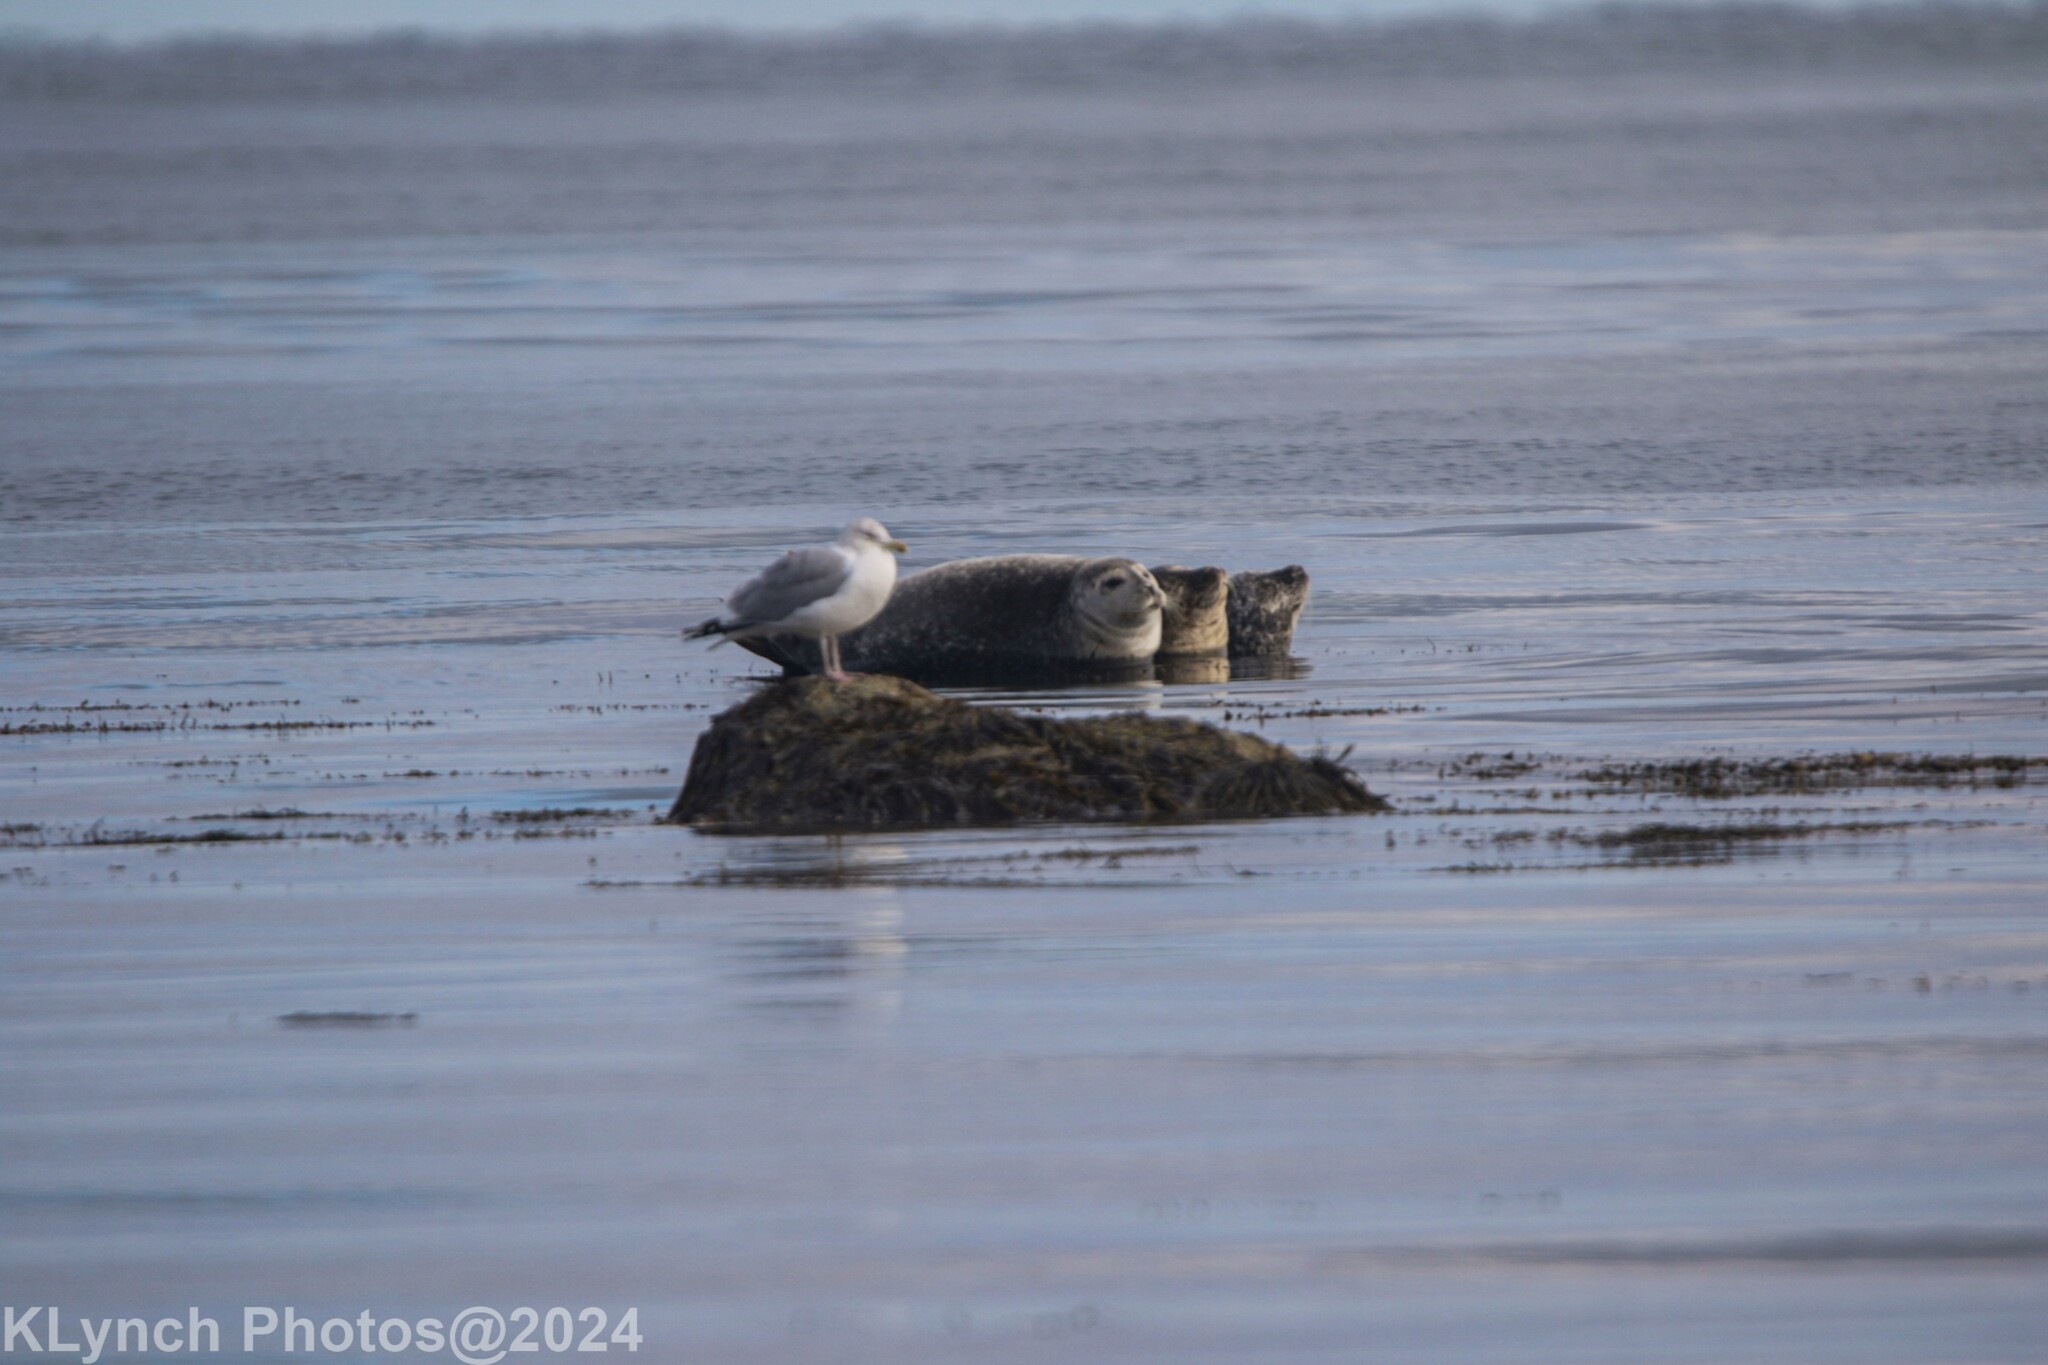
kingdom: Animalia
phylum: Chordata
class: Mammalia
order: Carnivora
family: Phocidae
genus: Phoca
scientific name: Phoca vitulina
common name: Harbor seal
